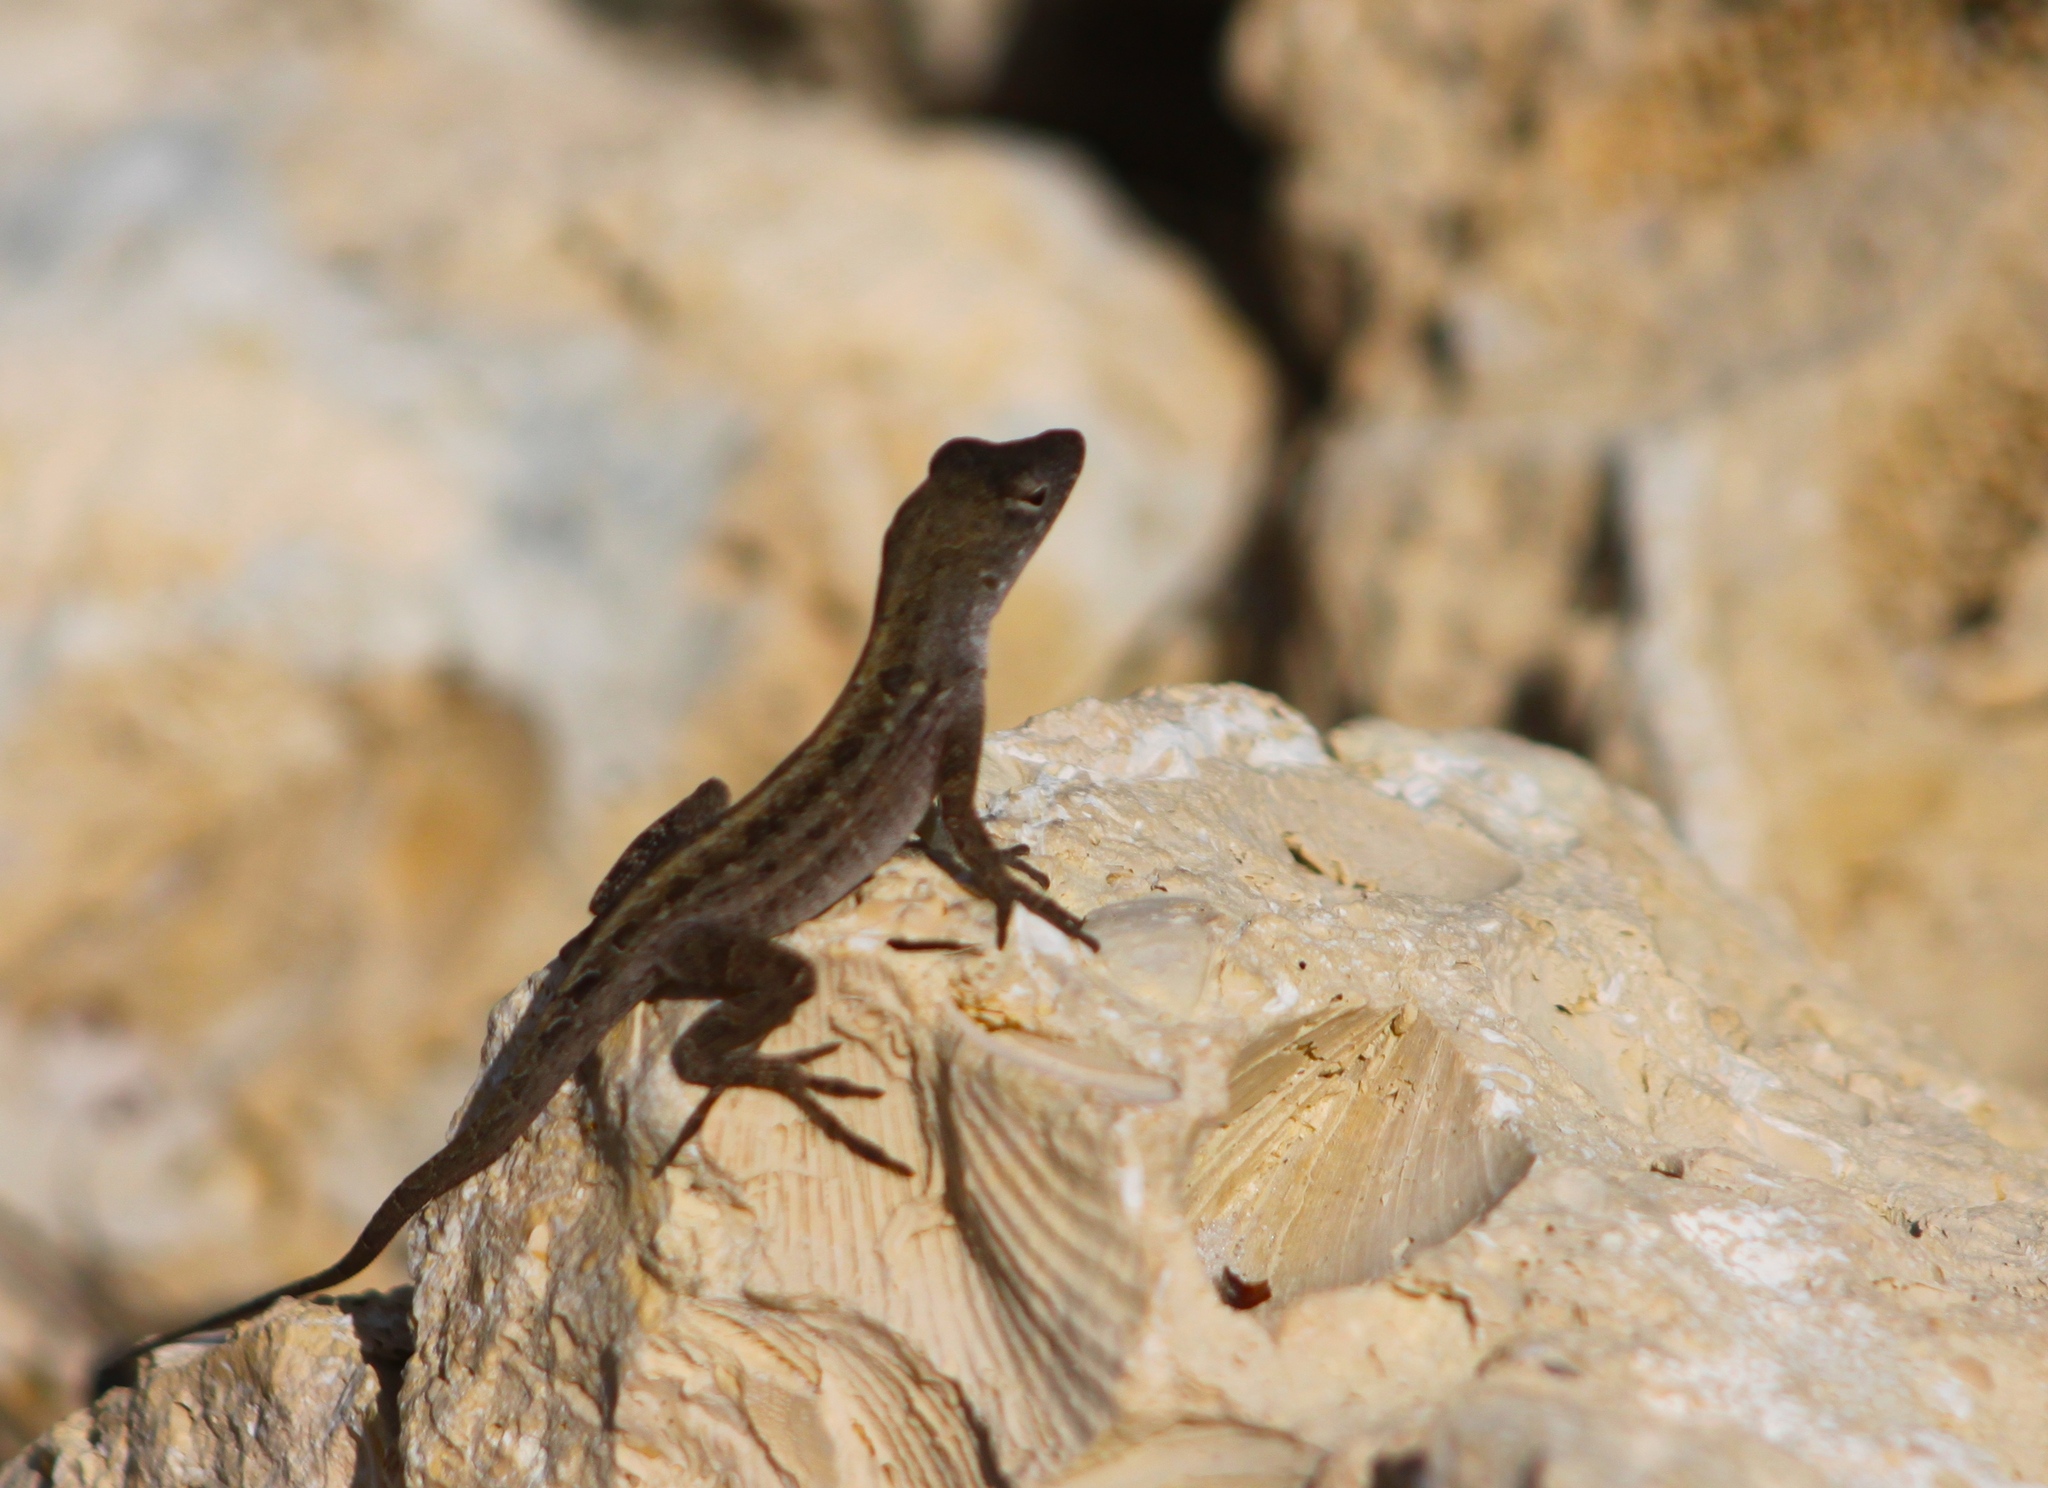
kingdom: Animalia
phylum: Chordata
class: Squamata
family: Dactyloidae
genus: Anolis
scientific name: Anolis sagrei
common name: Brown anole
